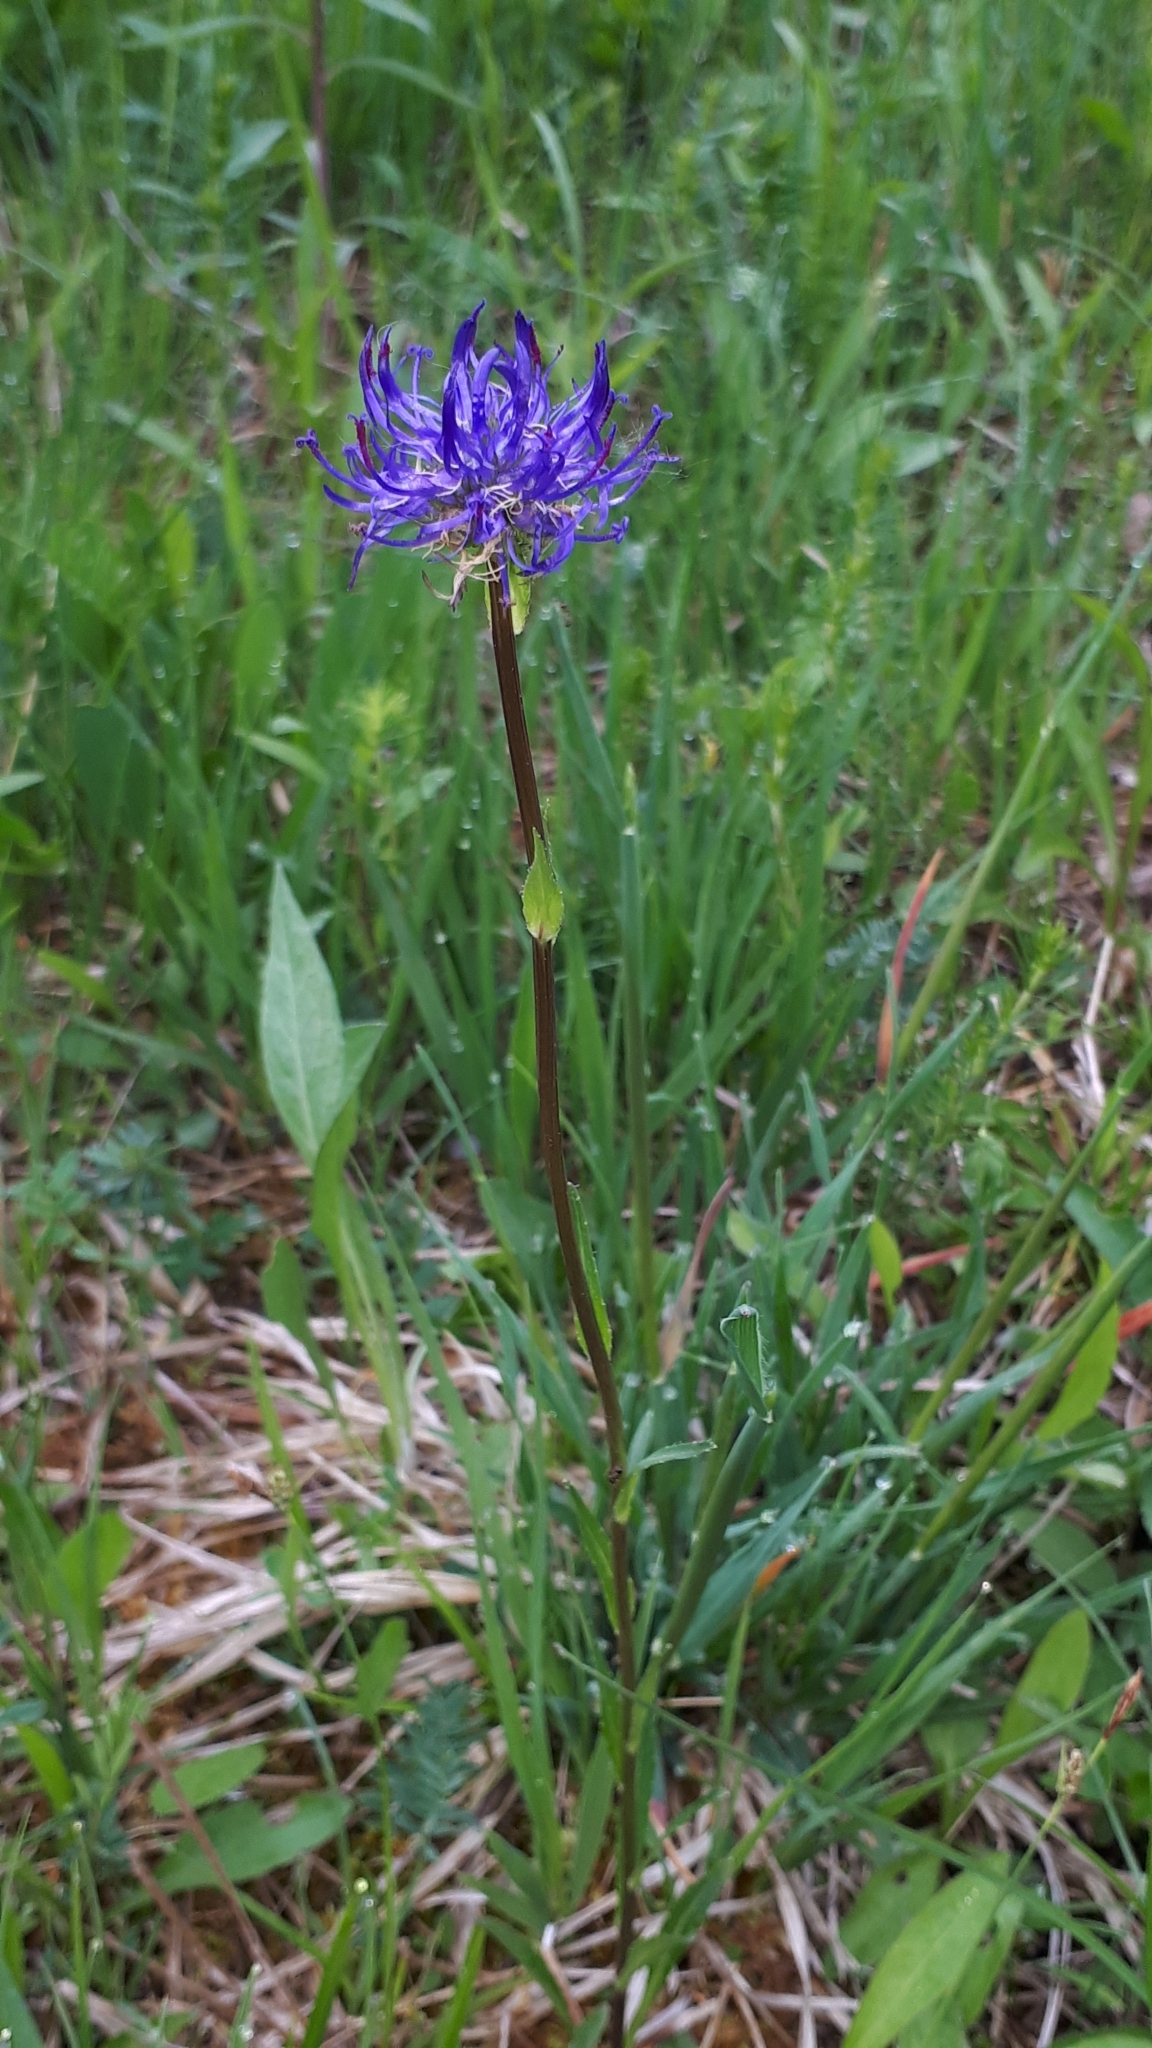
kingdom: Plantae
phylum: Tracheophyta
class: Magnoliopsida
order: Asterales
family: Campanulaceae
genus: Phyteuma
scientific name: Phyteuma orbiculare
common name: Round-headed rampion
